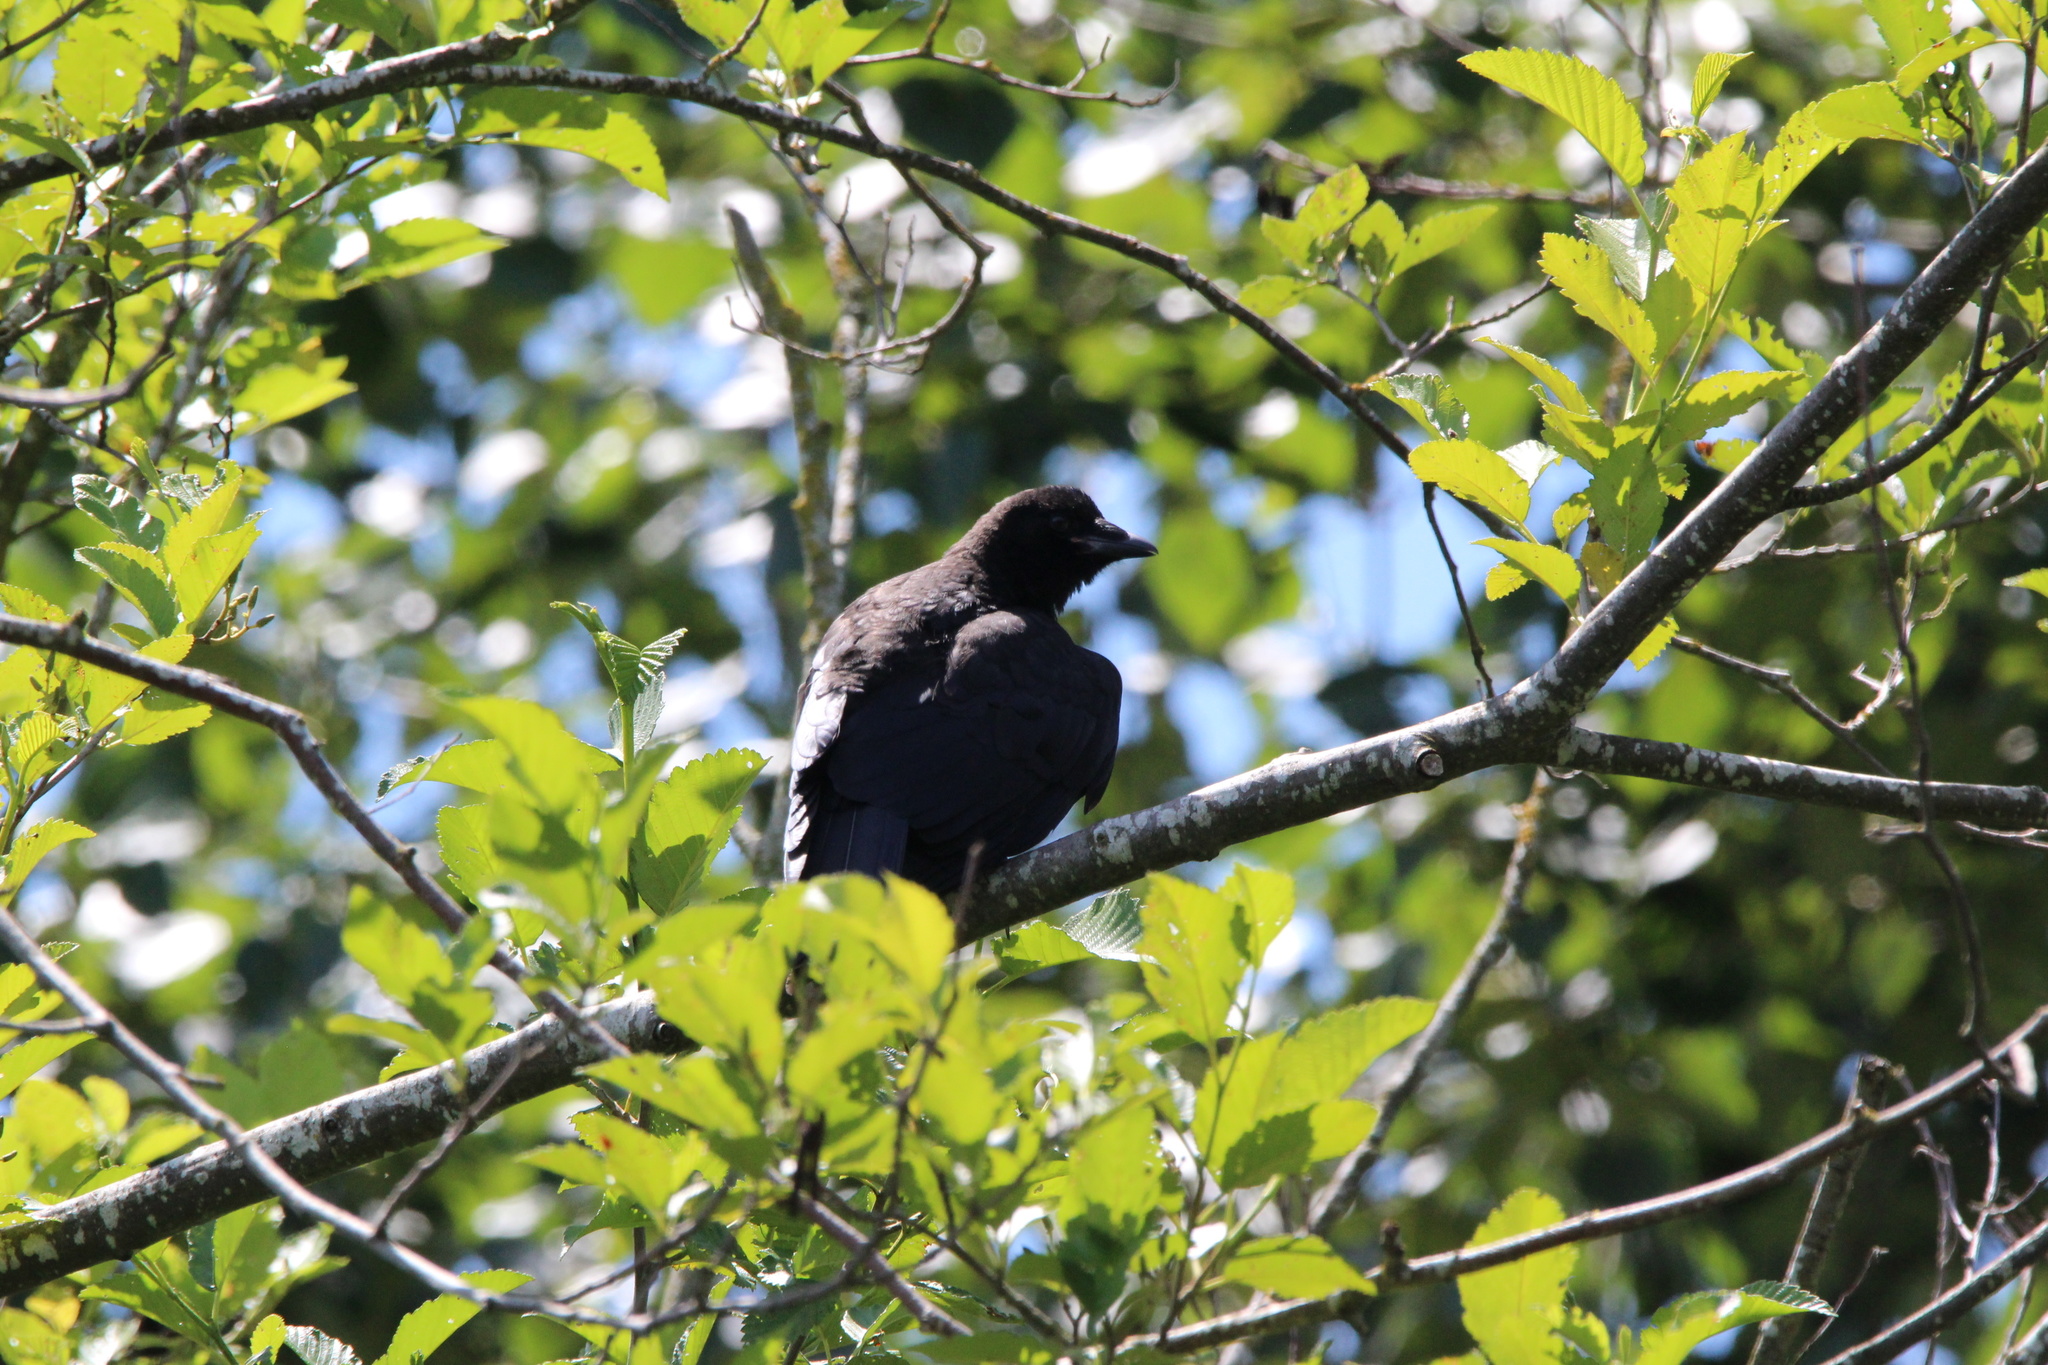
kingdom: Animalia
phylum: Chordata
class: Aves
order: Passeriformes
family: Corvidae
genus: Corvus
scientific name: Corvus brachyrhynchos
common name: American crow
